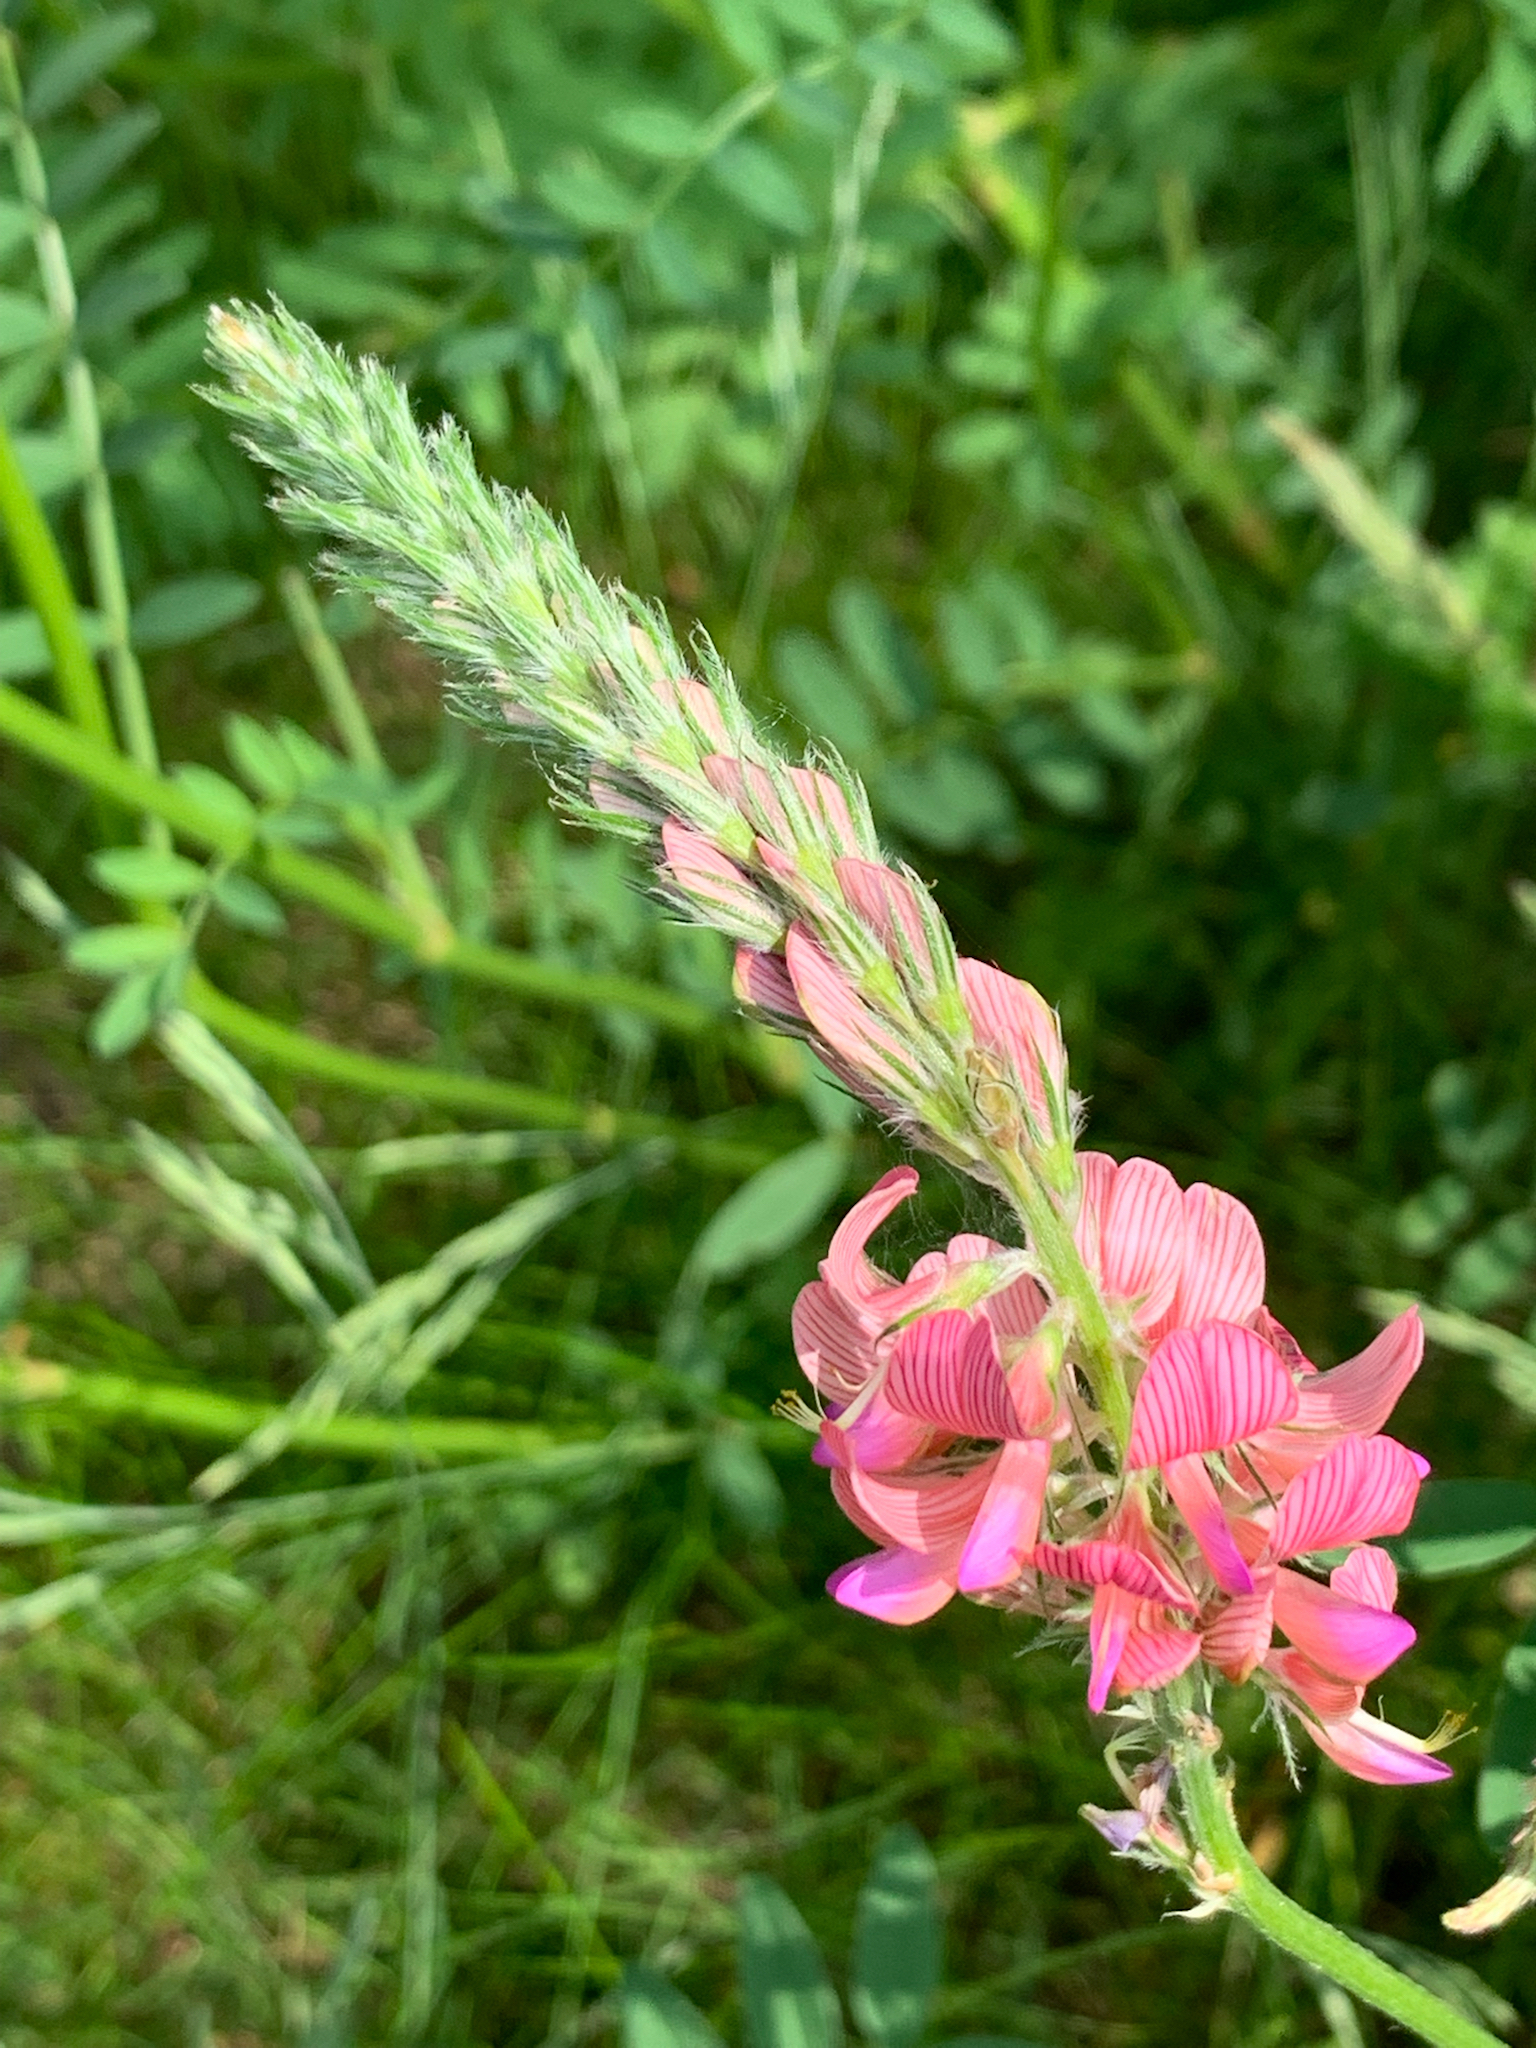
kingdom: Plantae
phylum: Tracheophyta
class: Magnoliopsida
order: Fabales
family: Fabaceae
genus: Onobrychis
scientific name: Onobrychis viciifolia
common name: Sainfoin
